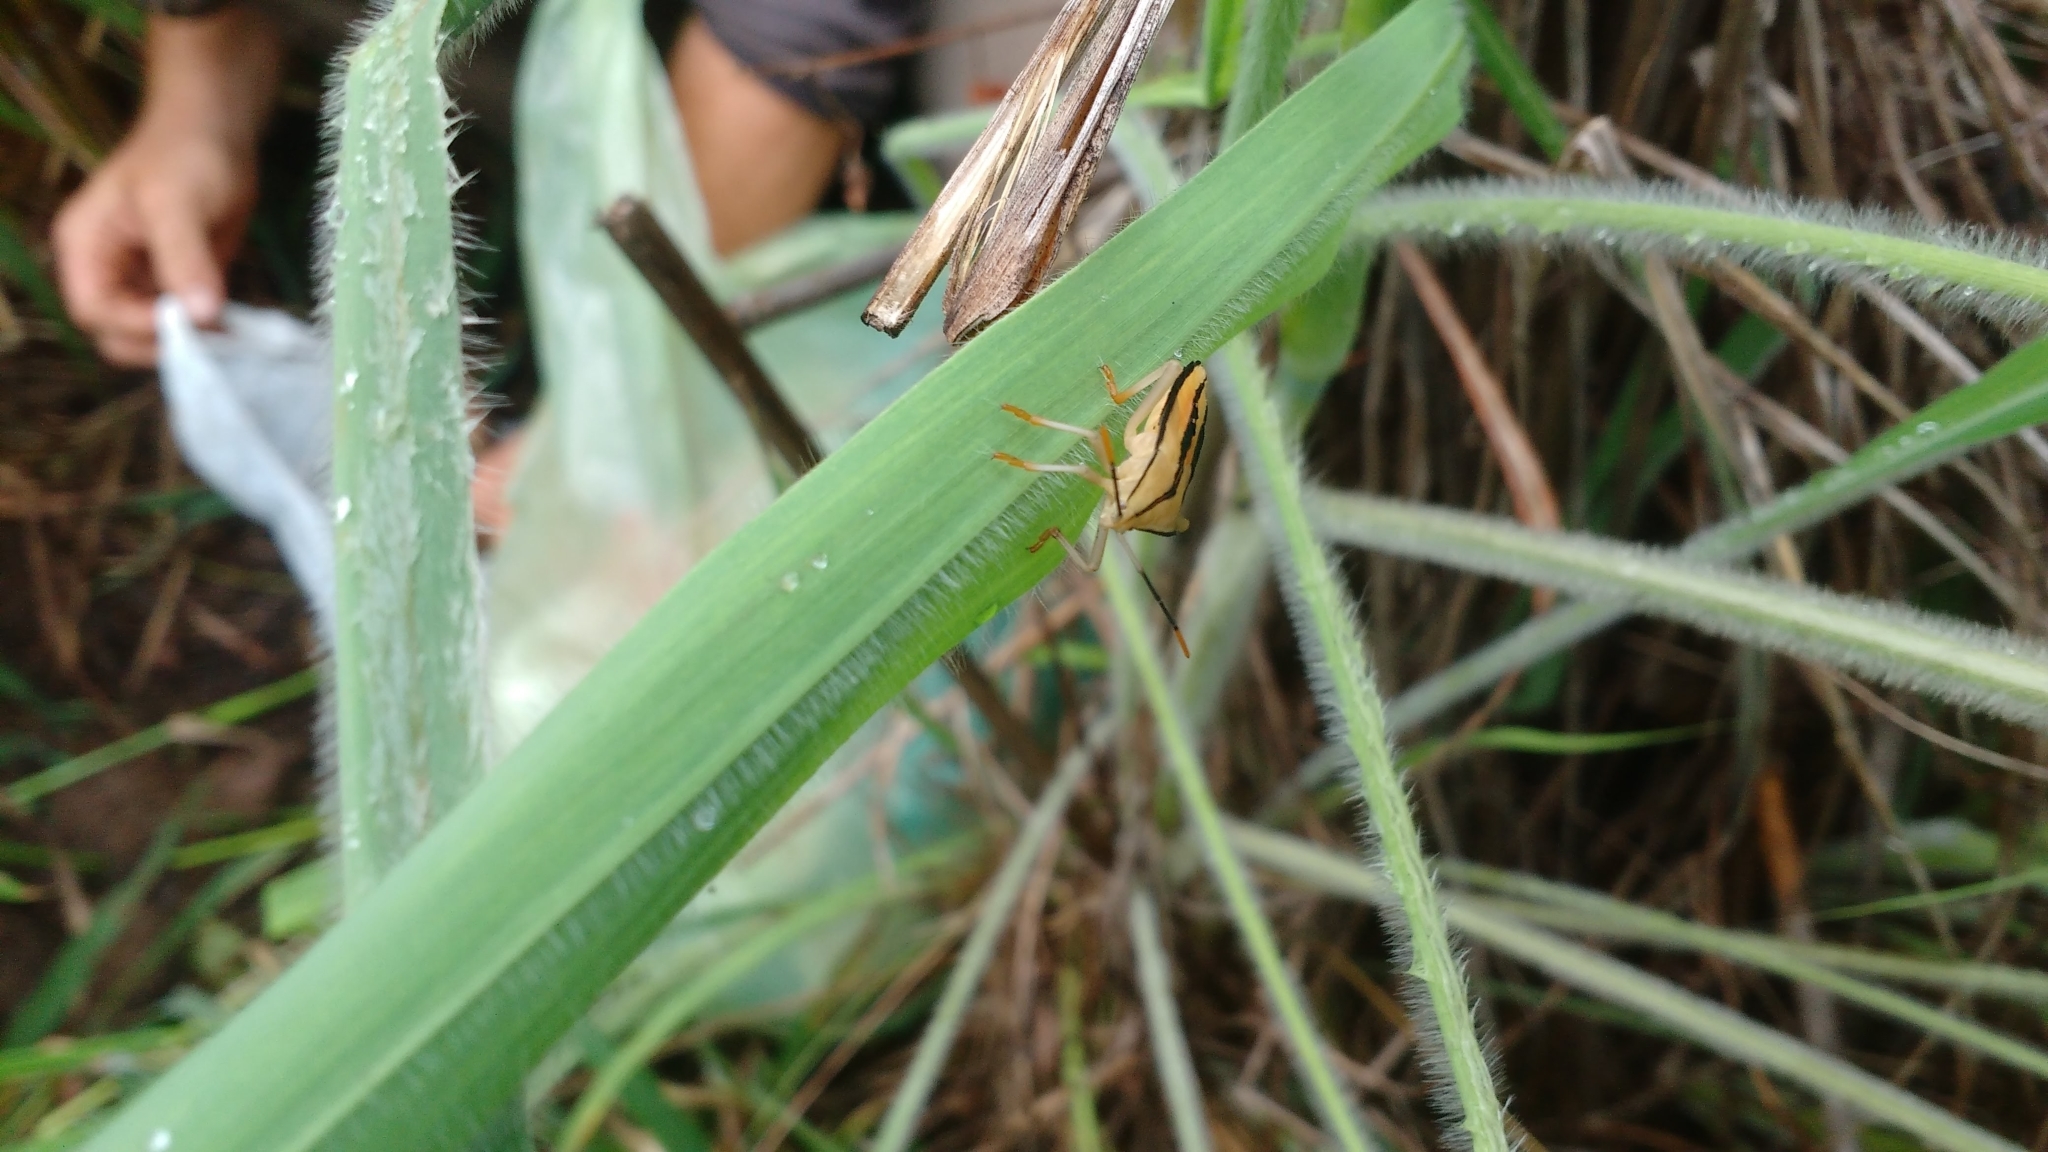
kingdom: Animalia
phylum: Arthropoda
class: Insecta
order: Hemiptera
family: Coreidae
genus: Cnemyrtus
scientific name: Cnemyrtus scriptus
